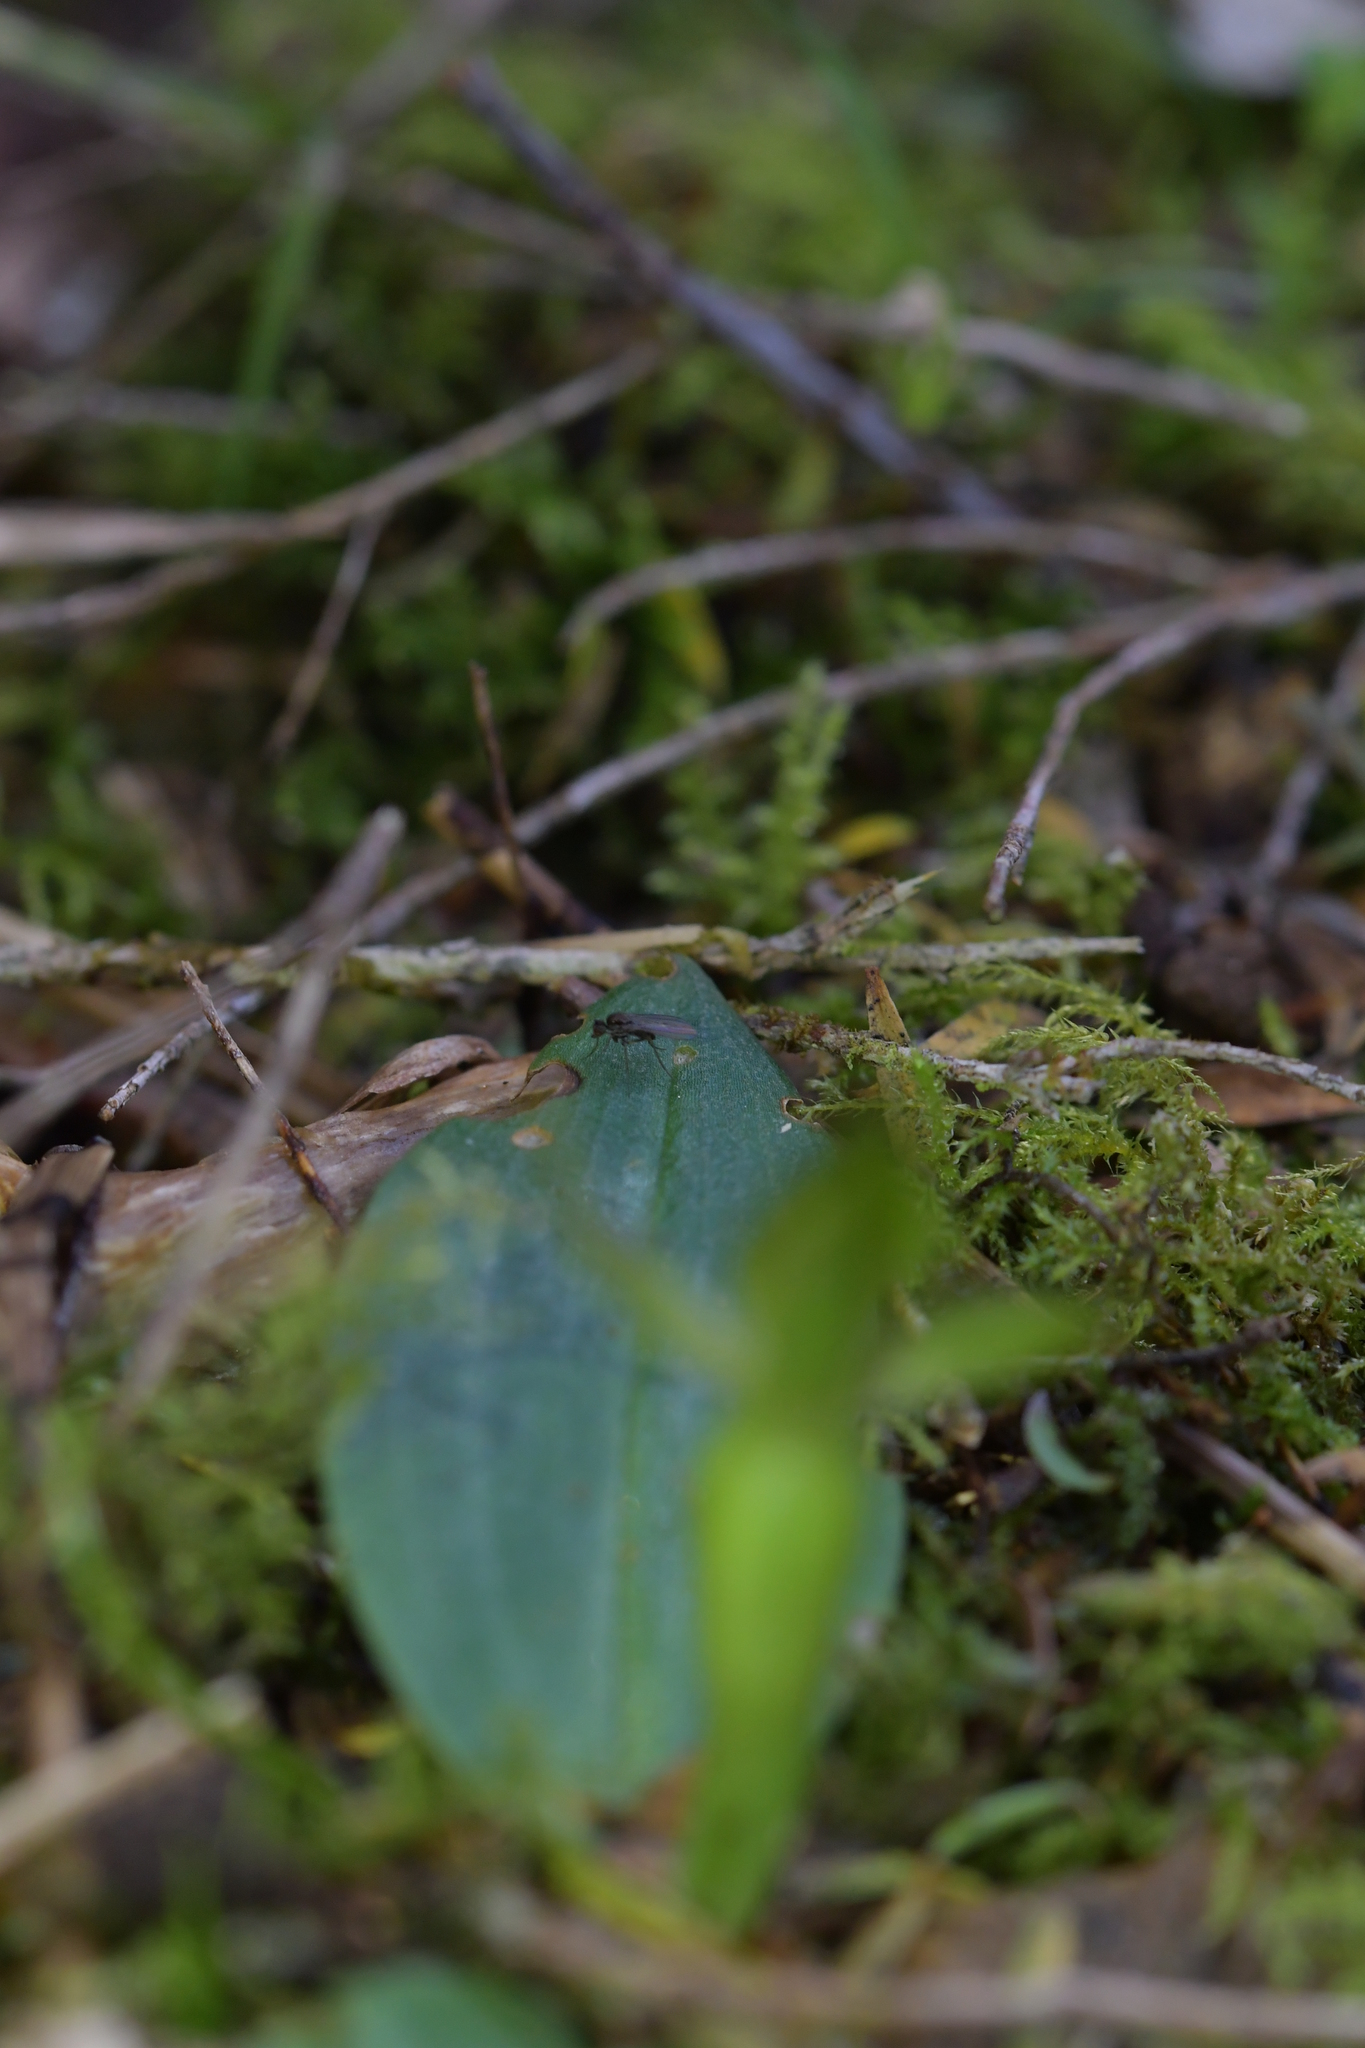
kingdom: Plantae
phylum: Tracheophyta
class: Liliopsida
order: Asparagales
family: Orchidaceae
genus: Chiloglottis
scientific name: Chiloglottis cornuta
